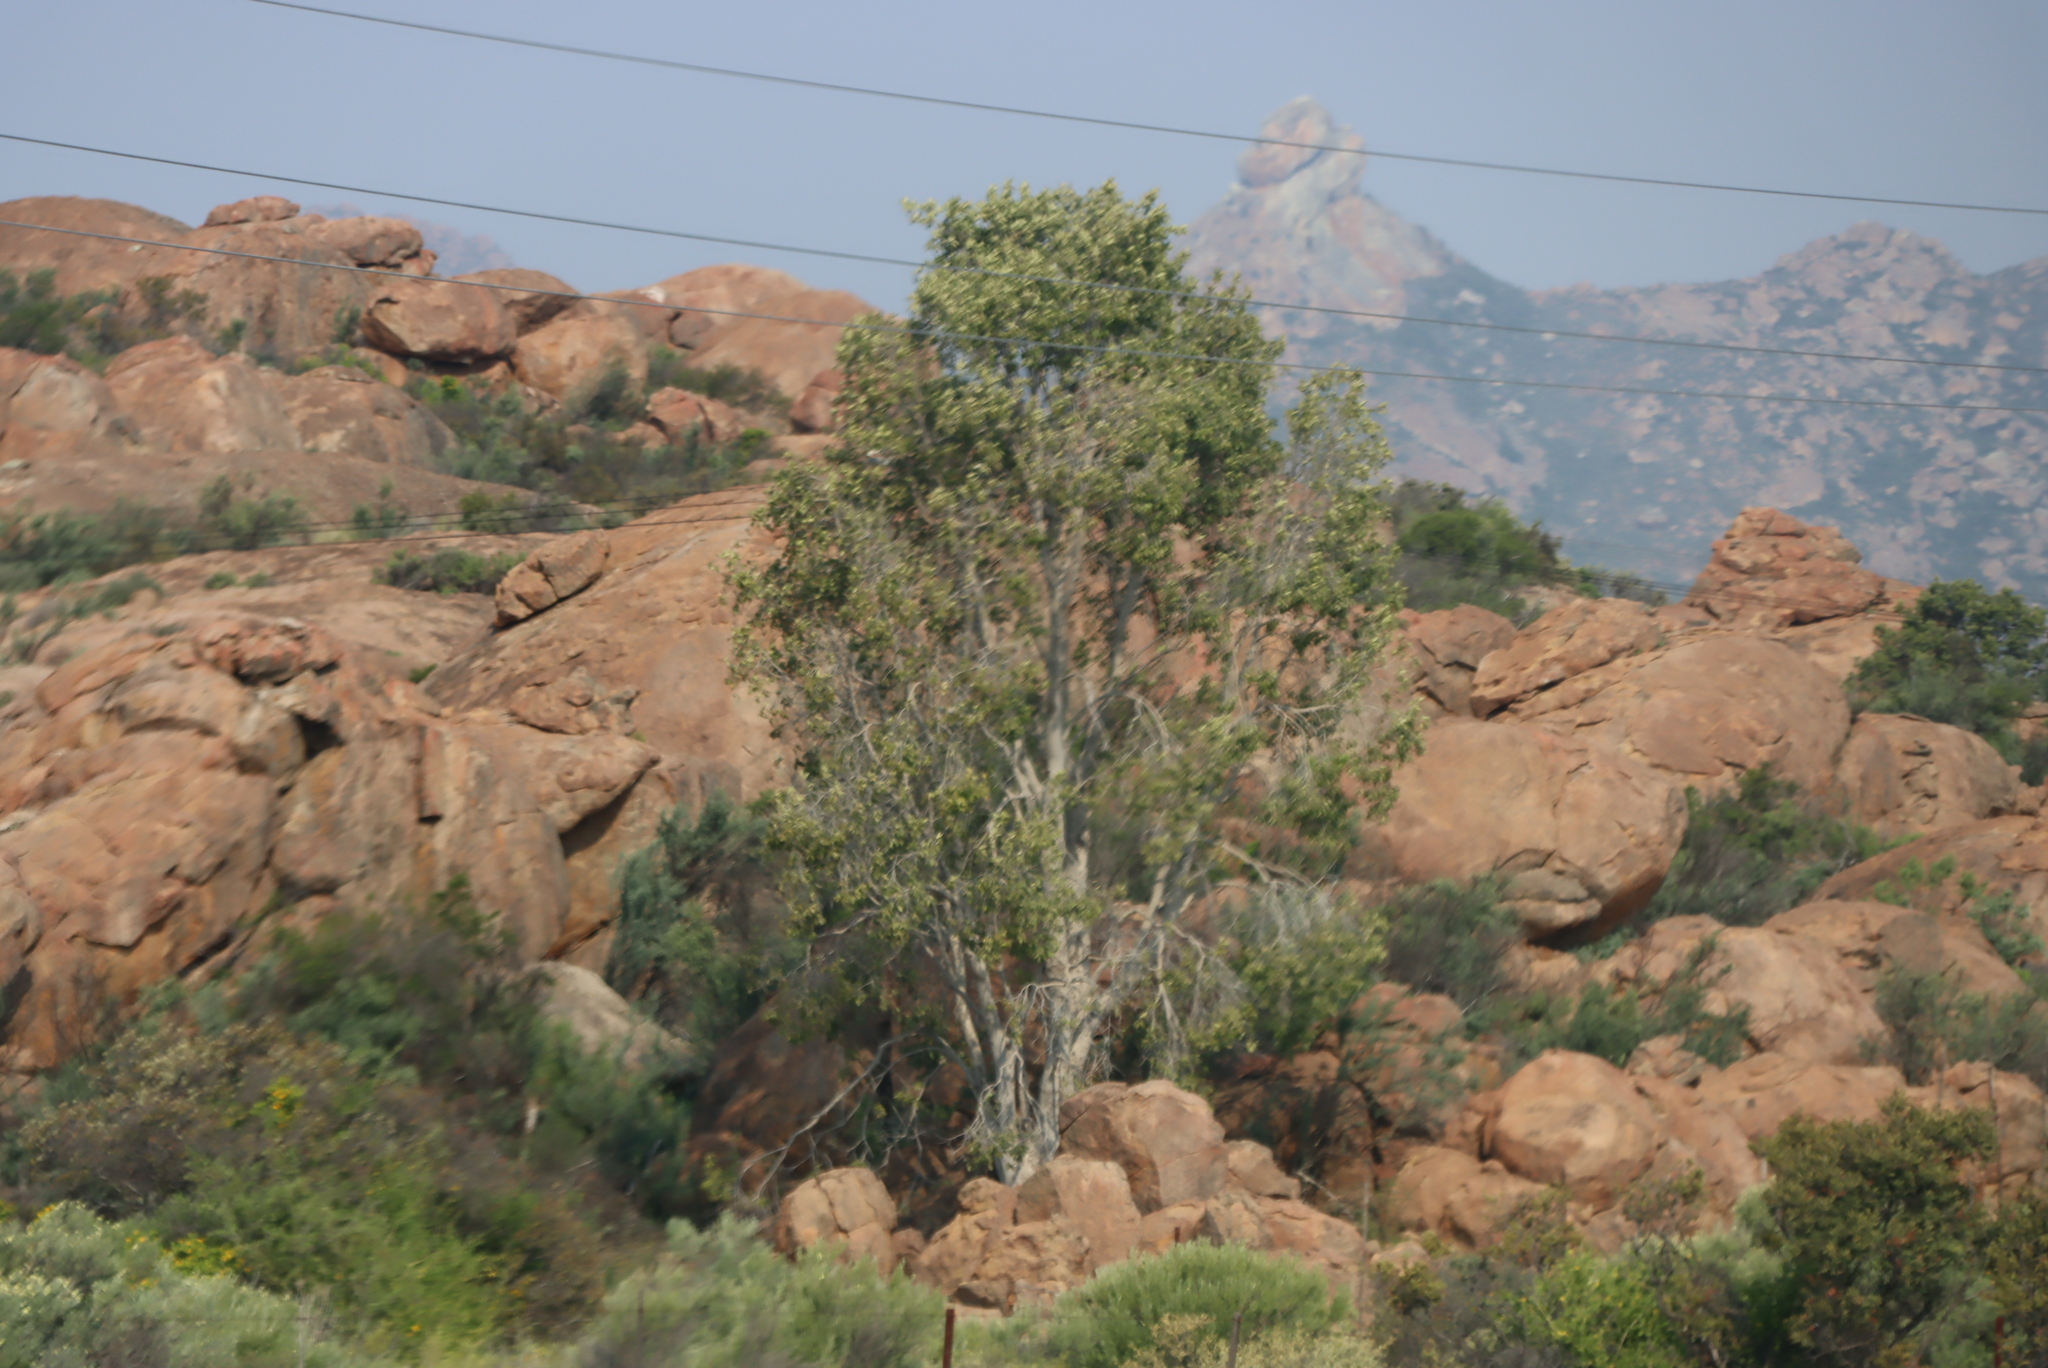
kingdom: Plantae
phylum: Tracheophyta
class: Magnoliopsida
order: Rosales
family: Moraceae
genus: Ficus
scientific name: Ficus cordata
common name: Namaqua rock fig
